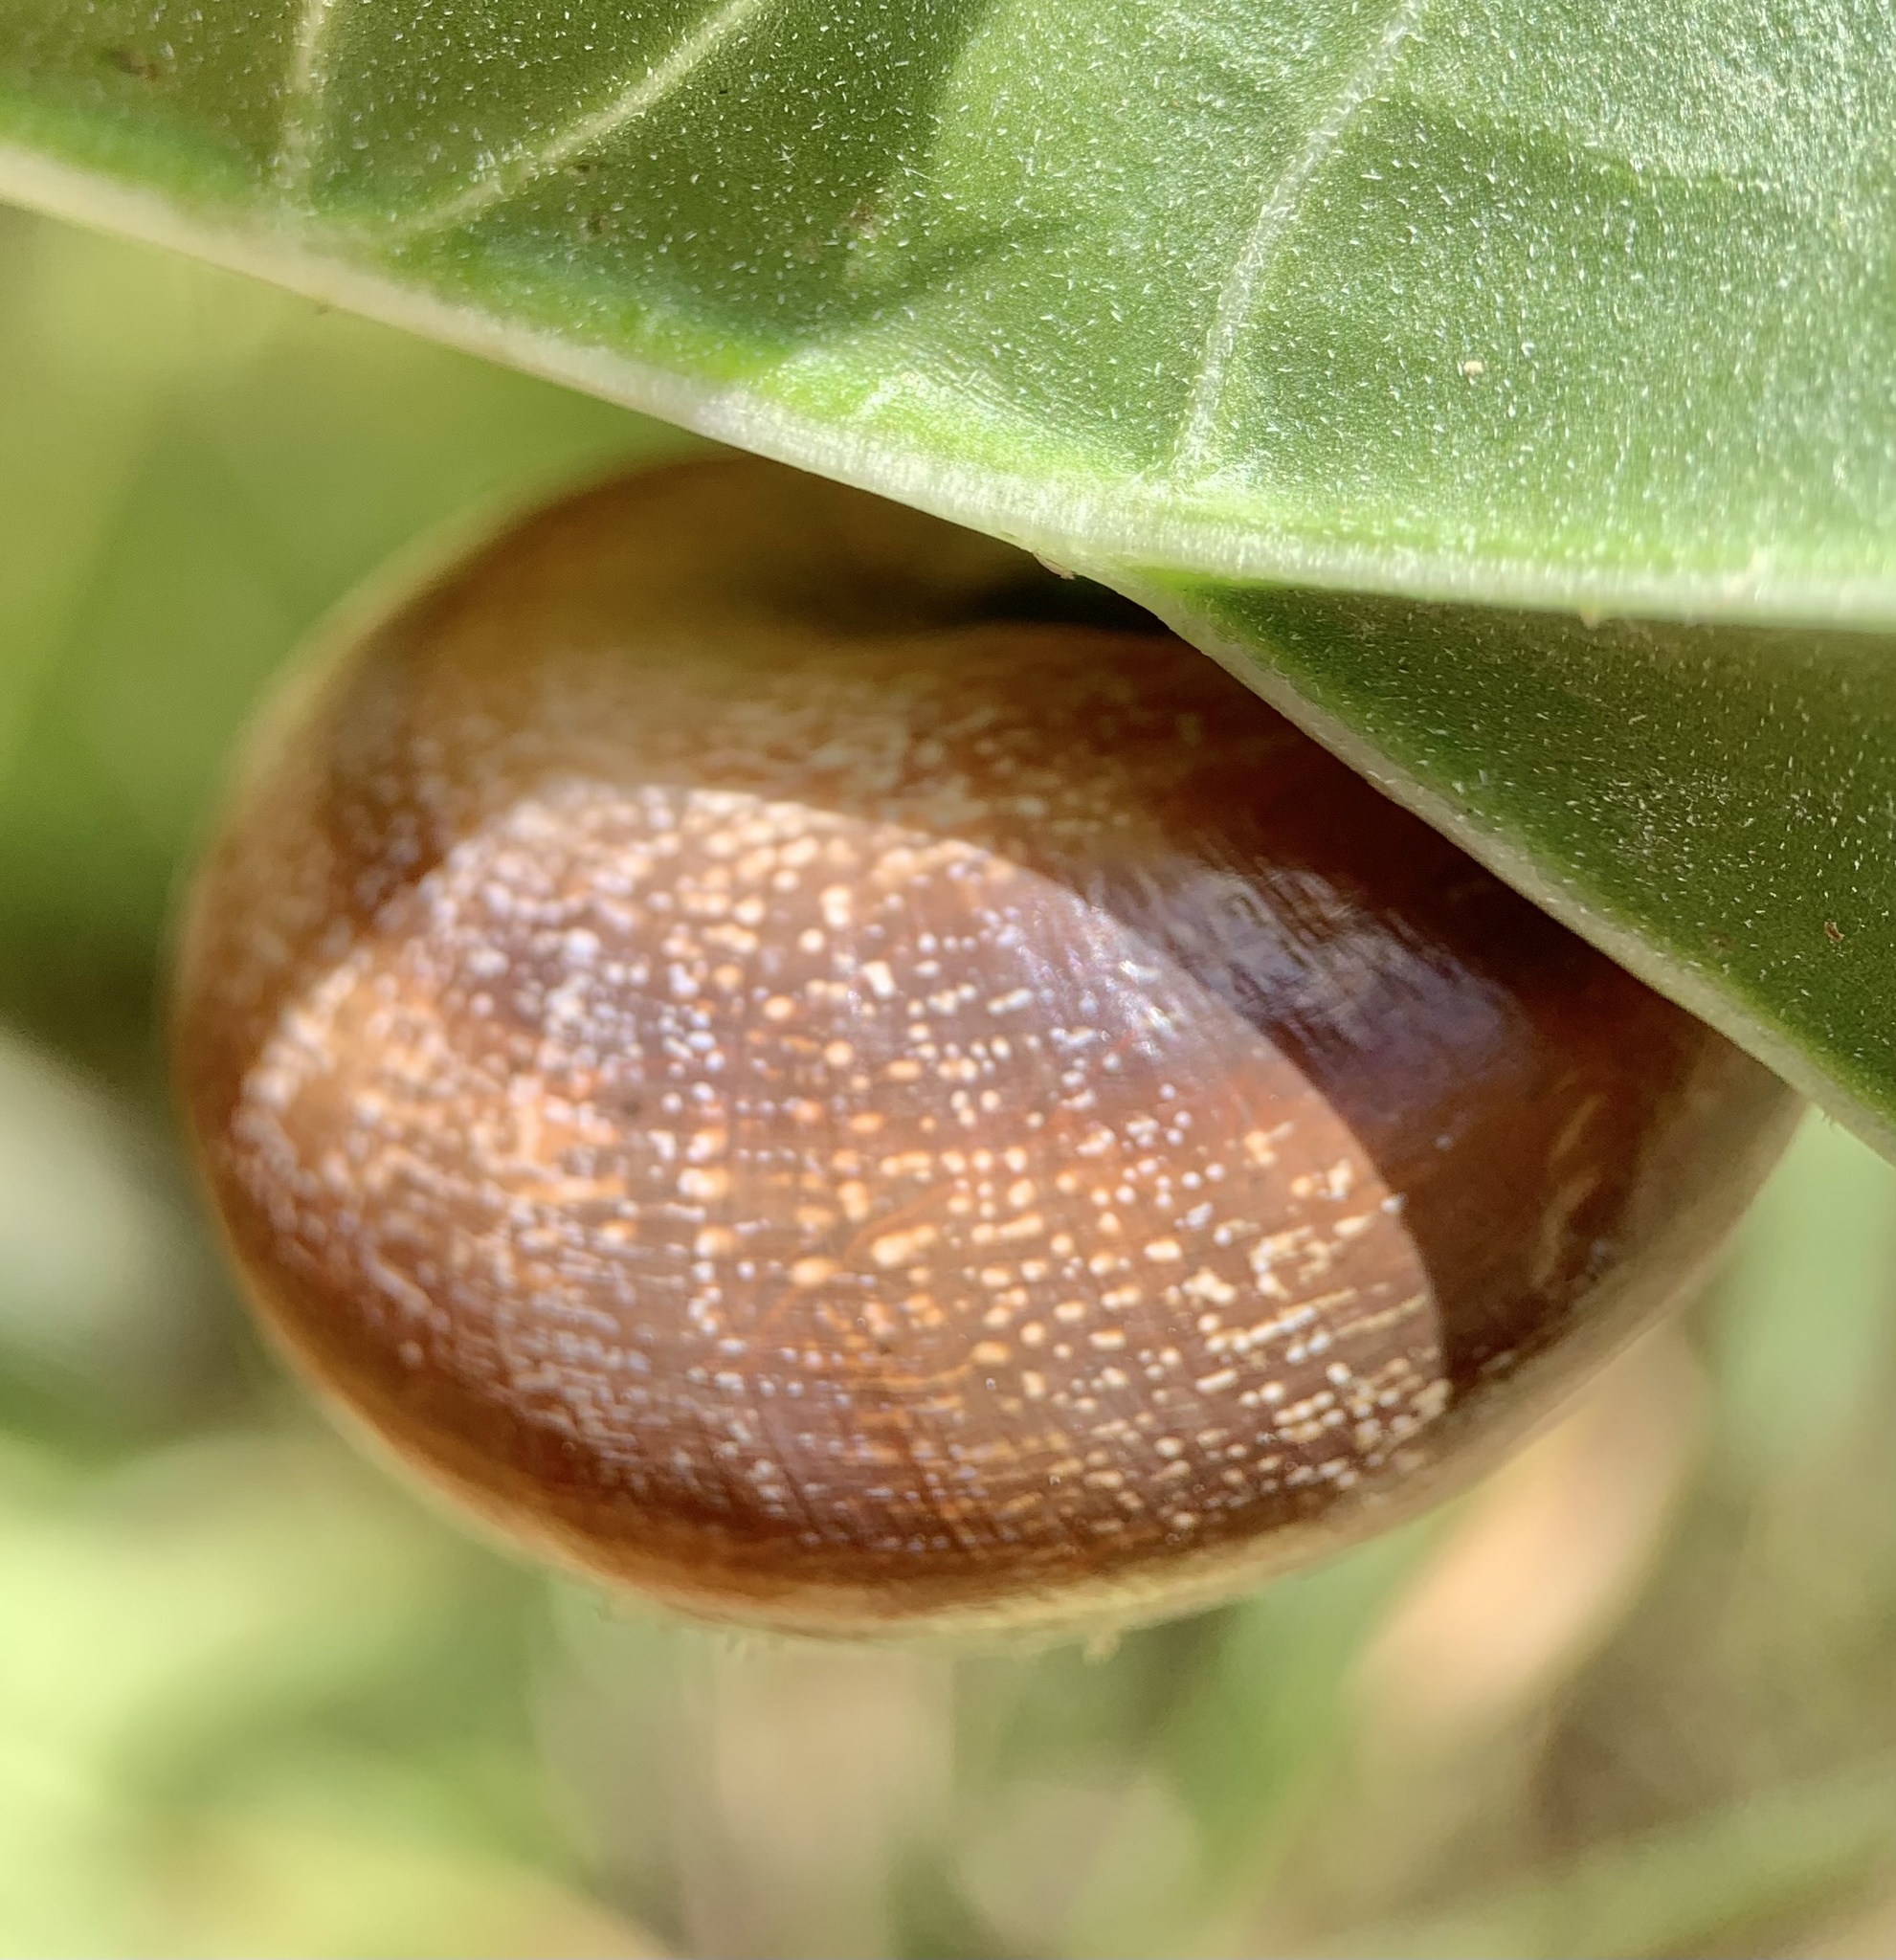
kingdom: Animalia
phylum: Mollusca
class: Gastropoda
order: Stylommatophora
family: Helicidae
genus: Otala
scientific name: Otala punctata
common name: Milk snail
